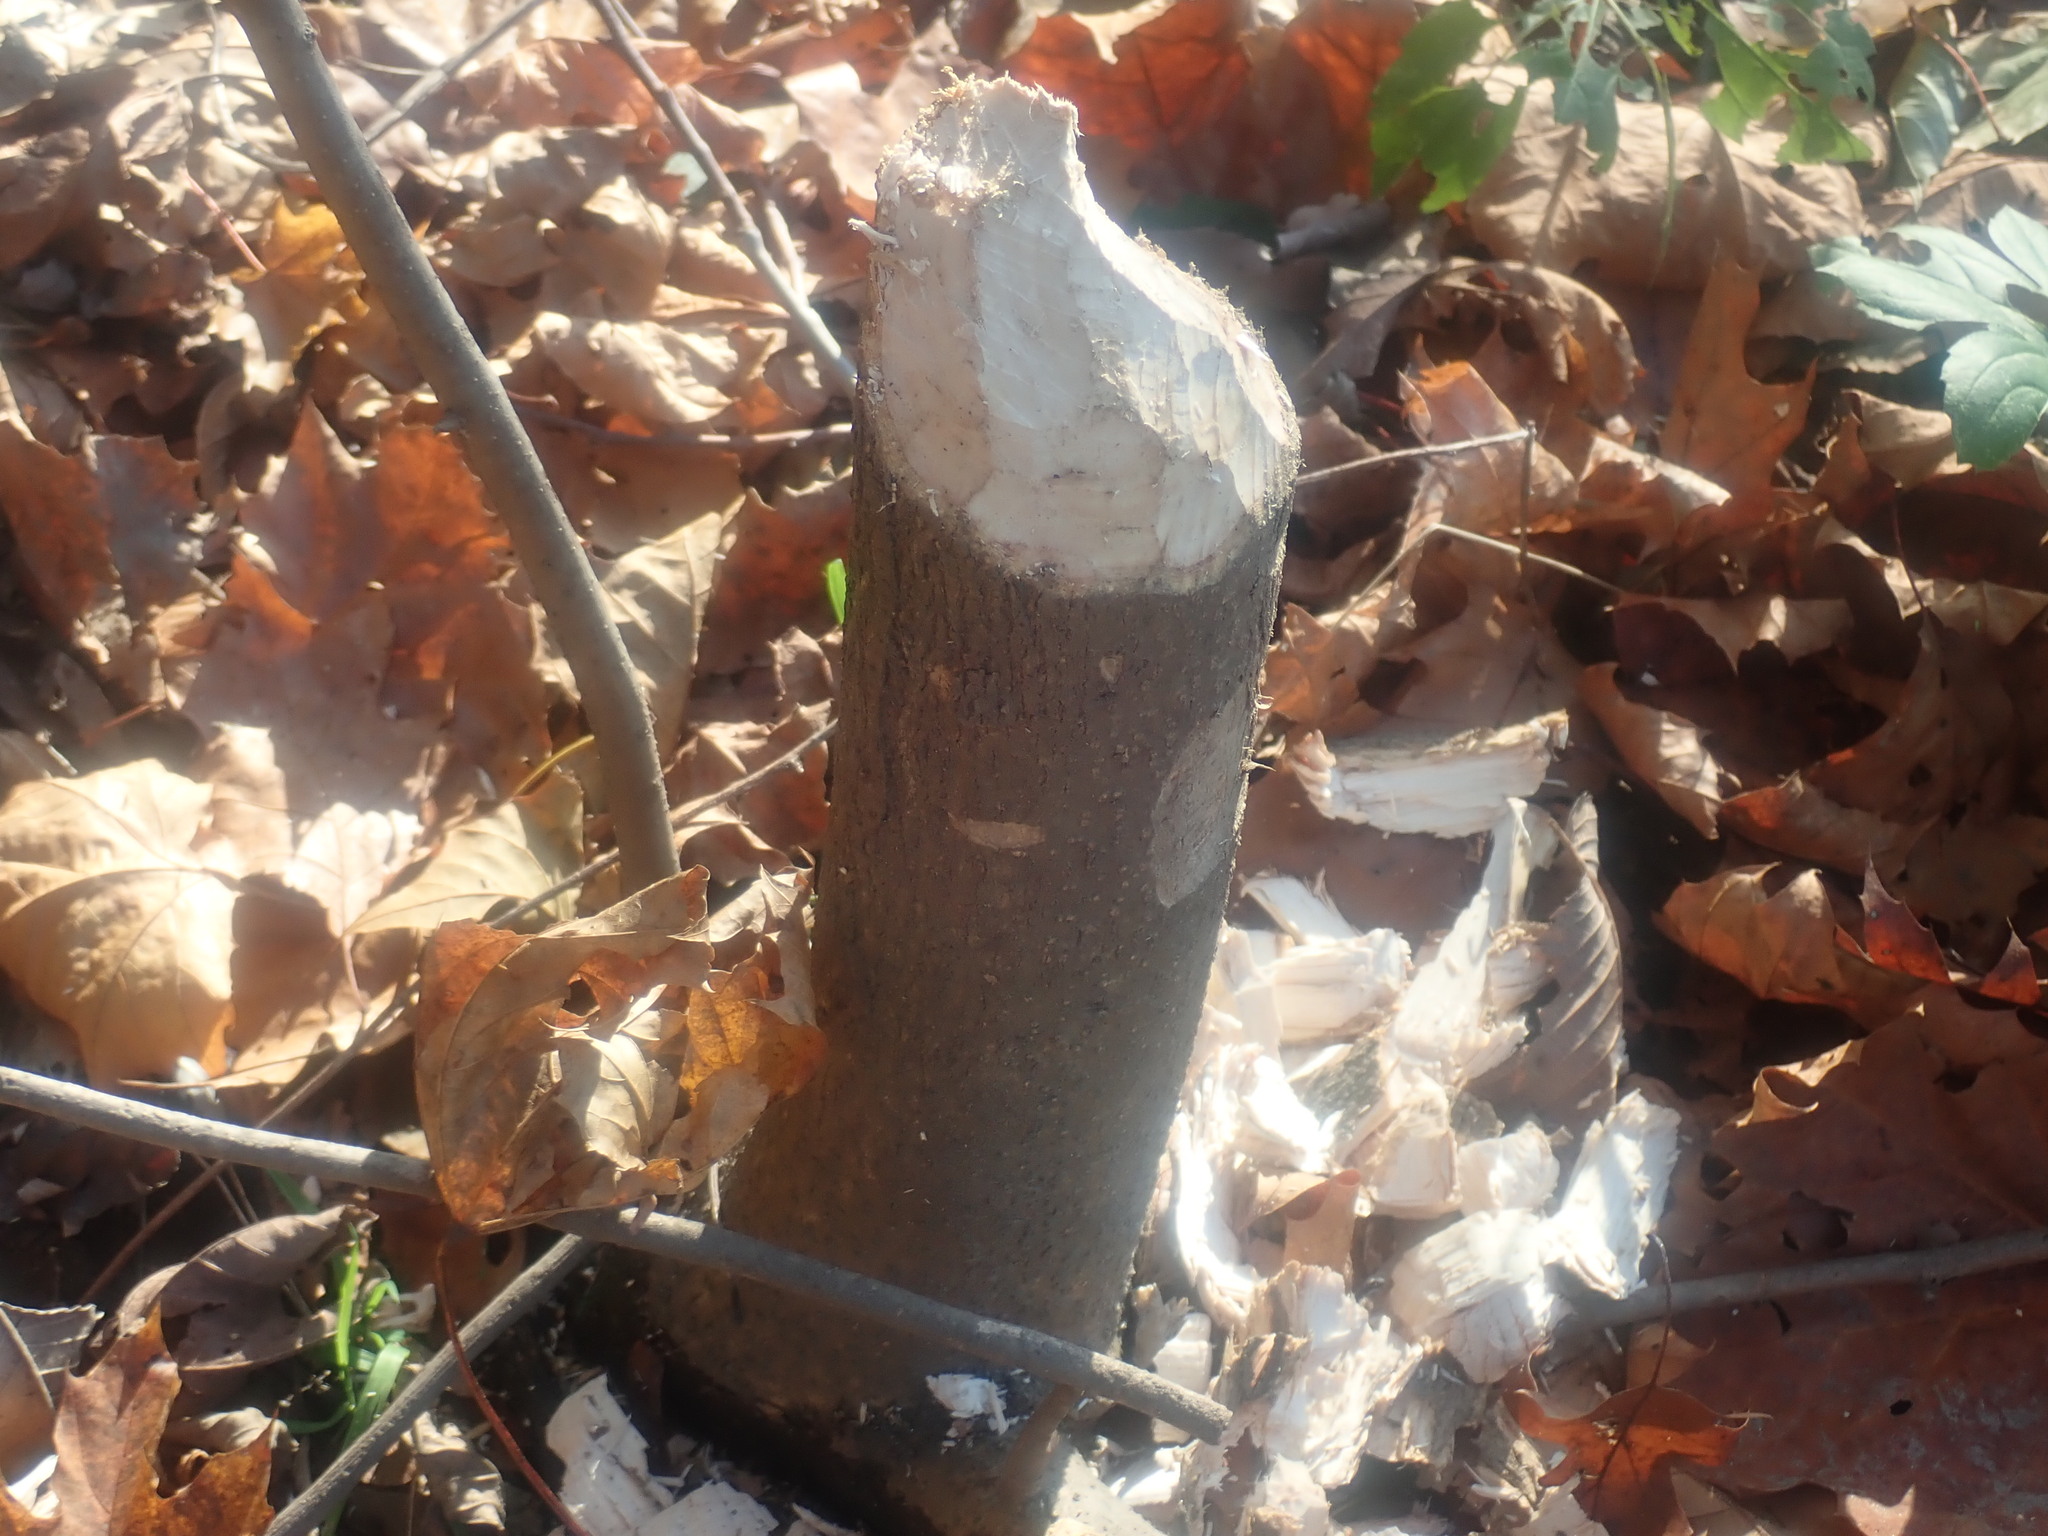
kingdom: Animalia
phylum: Chordata
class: Mammalia
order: Rodentia
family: Castoridae
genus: Castor
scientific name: Castor canadensis
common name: American beaver
